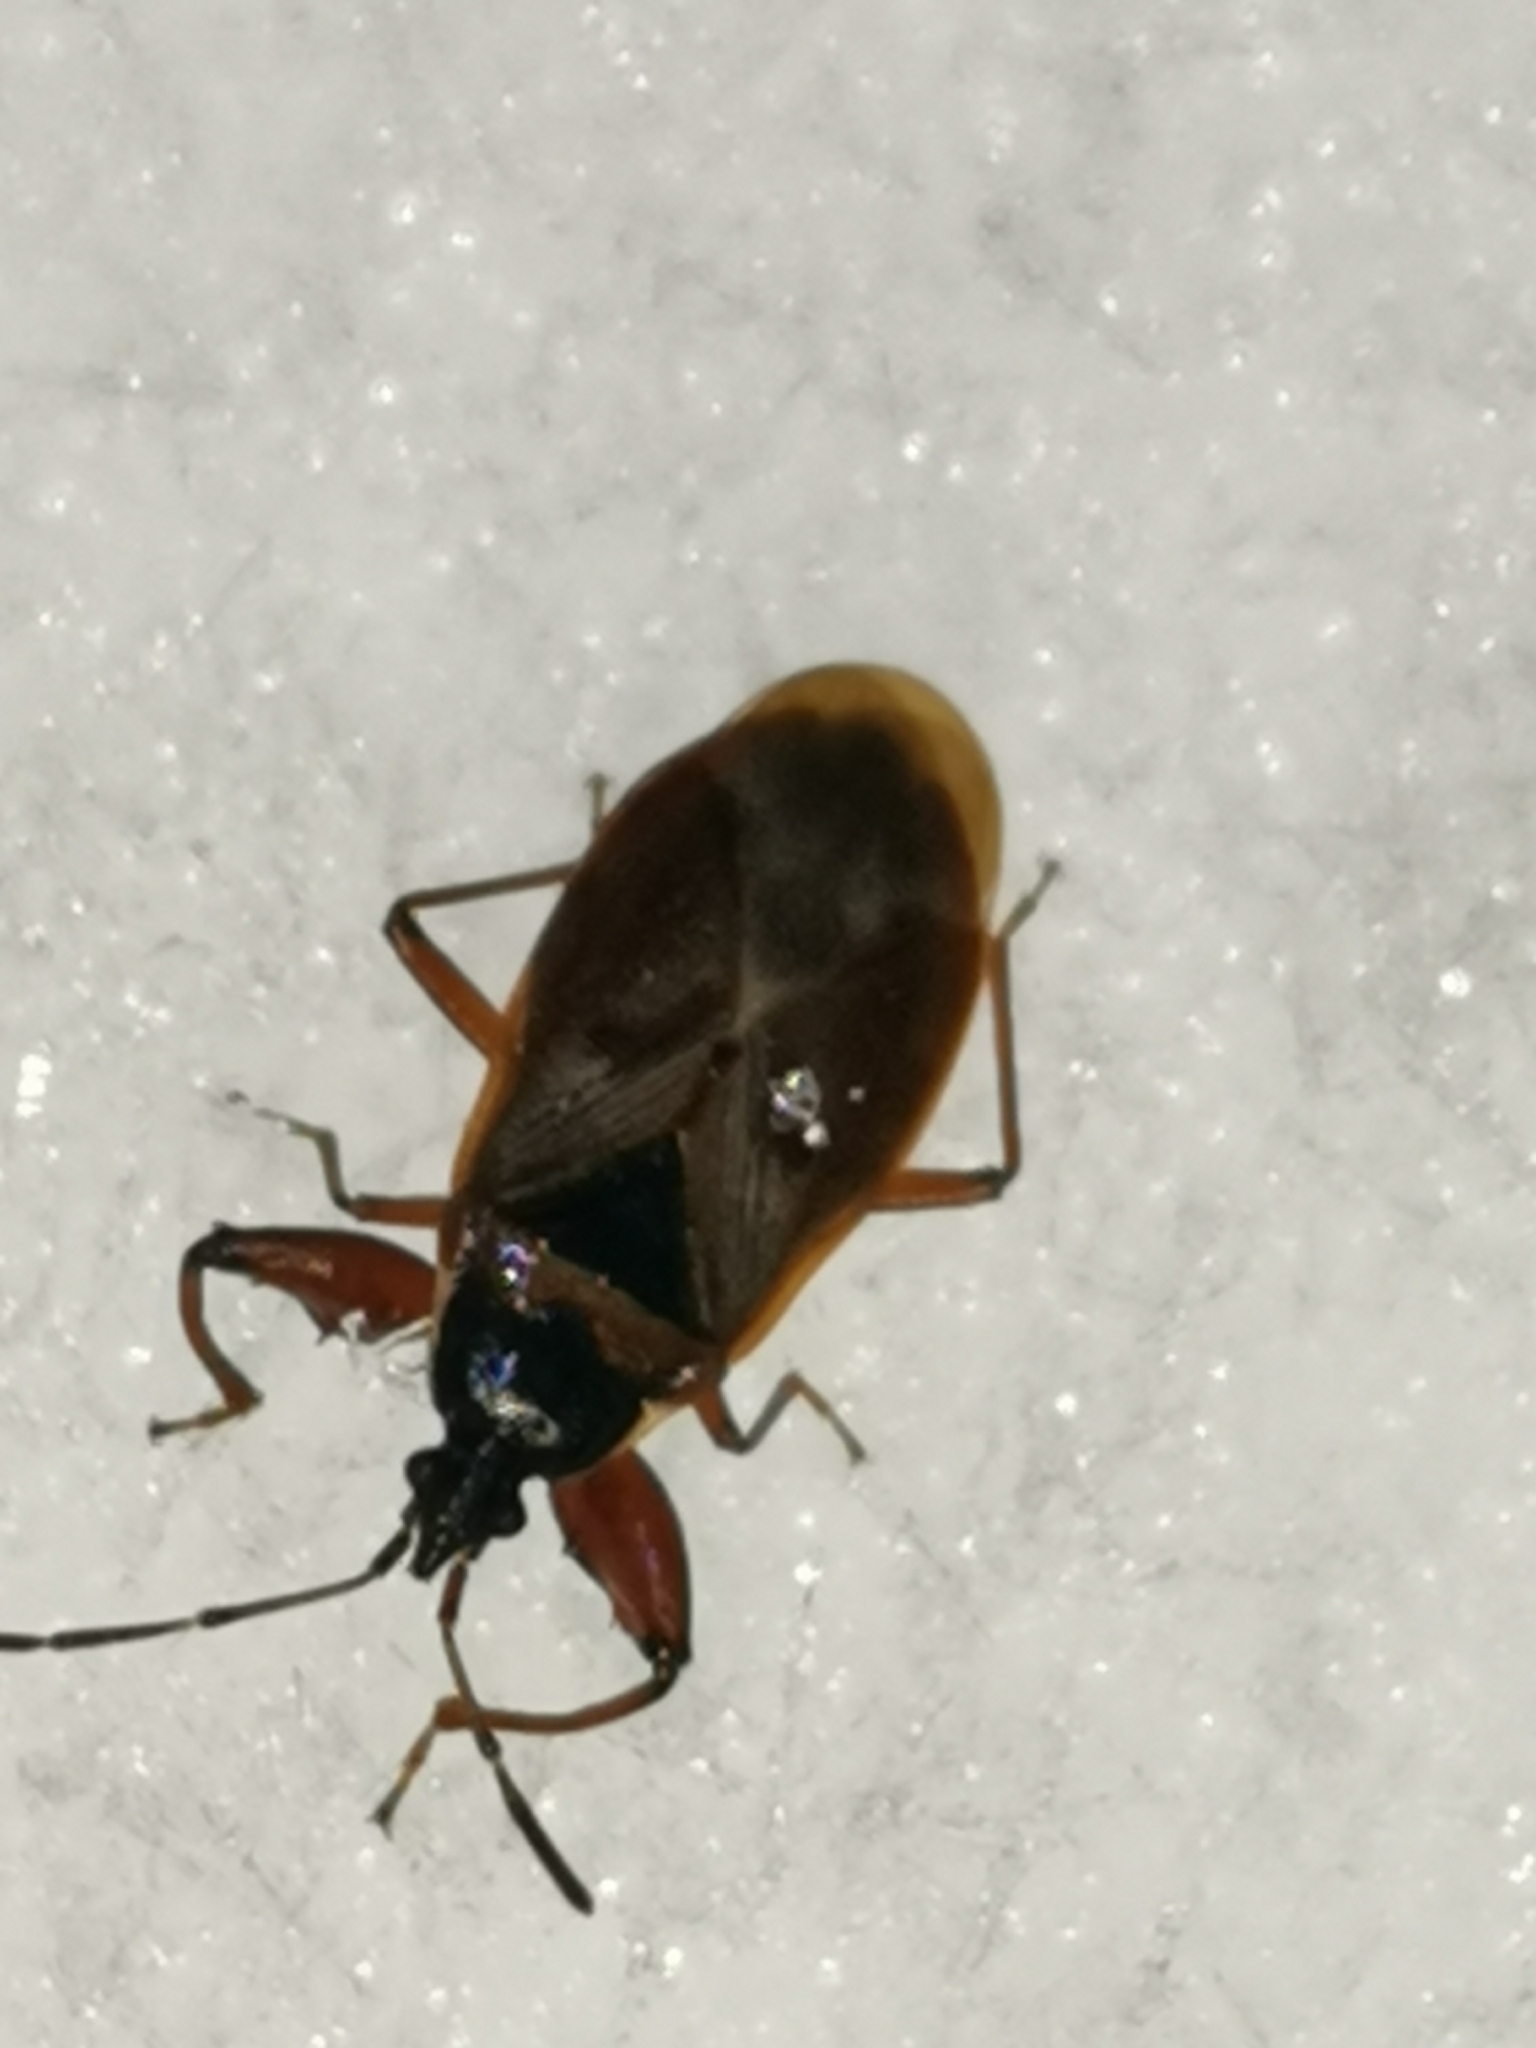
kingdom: Animalia
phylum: Arthropoda
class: Insecta
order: Hemiptera
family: Rhyparochromidae
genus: Gastrodes
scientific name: Gastrodes abietum
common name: Spruce cone bug
